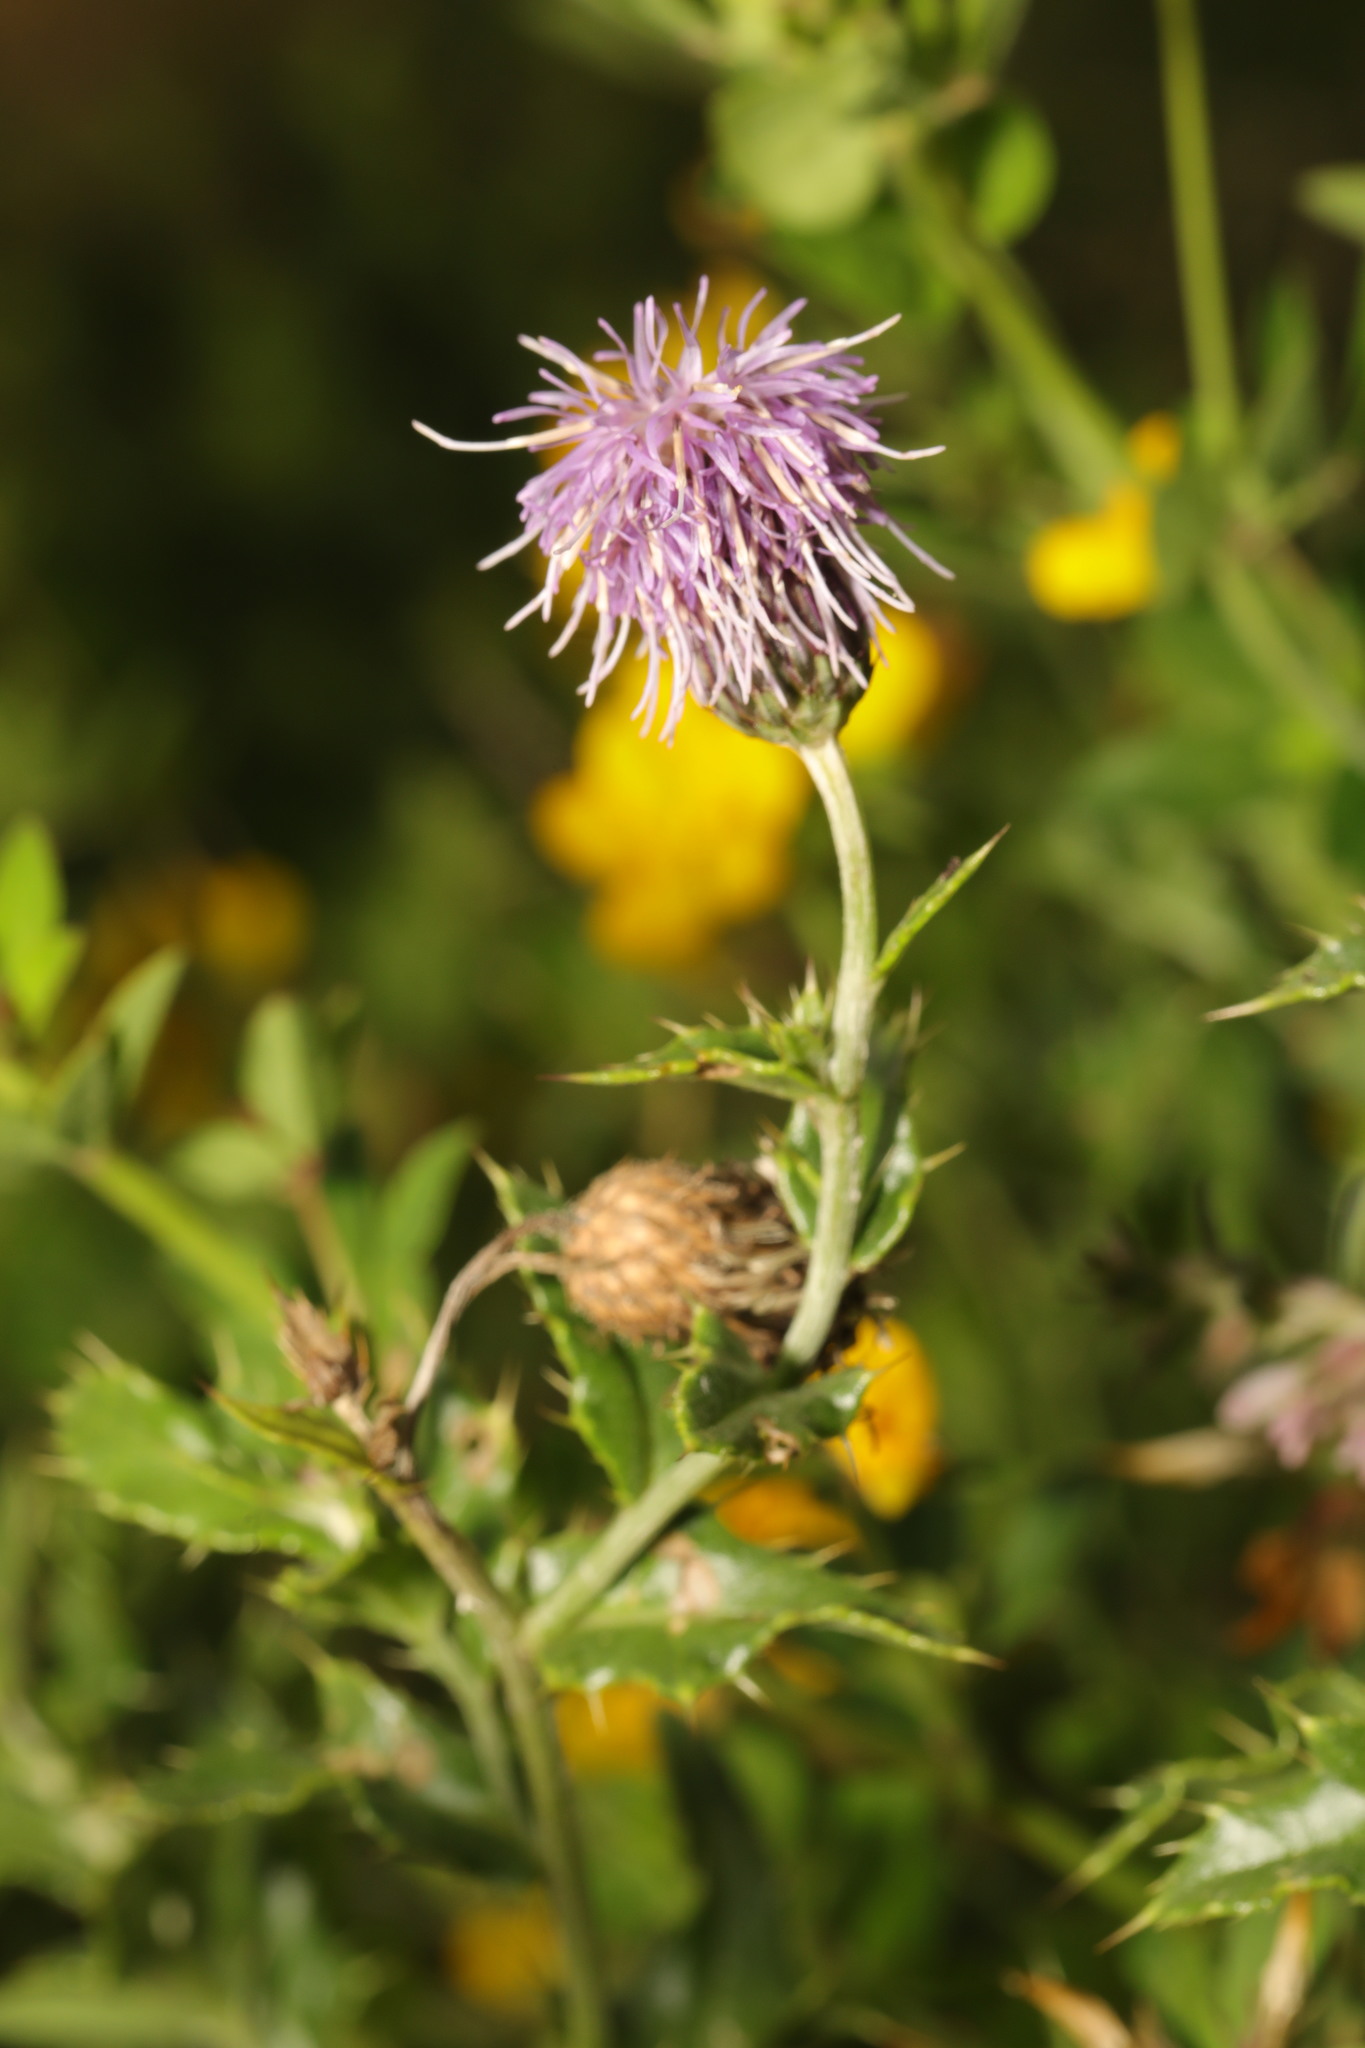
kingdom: Plantae
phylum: Tracheophyta
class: Magnoliopsida
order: Asterales
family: Asteraceae
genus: Cirsium
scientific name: Cirsium arvense
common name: Creeping thistle
